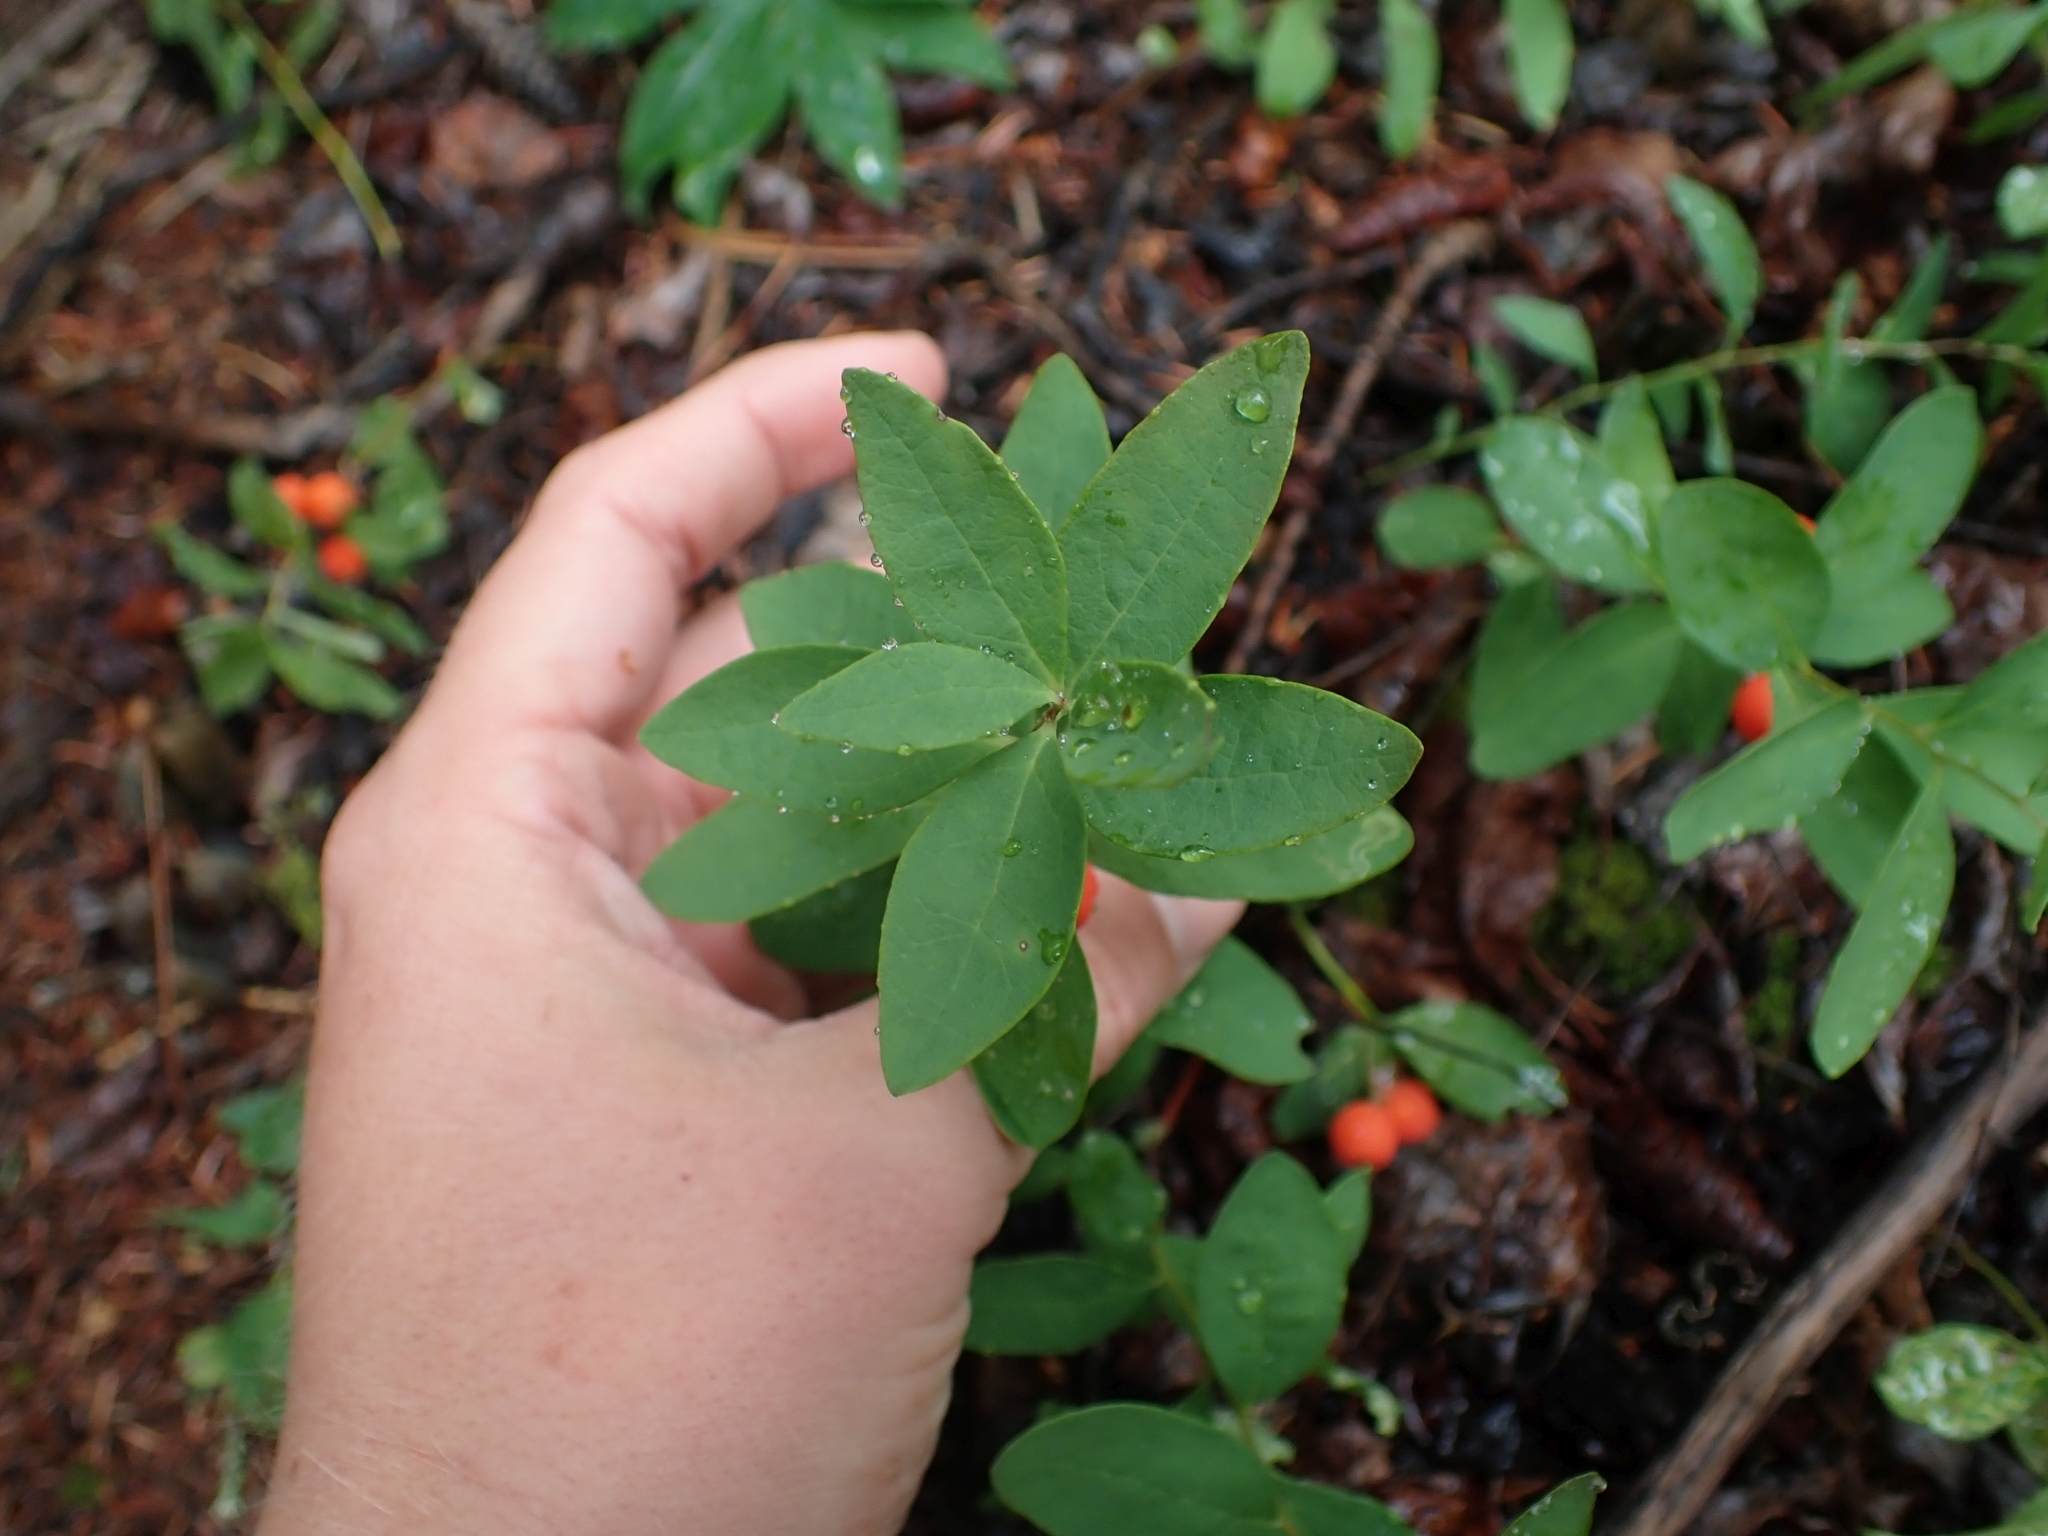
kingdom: Plantae
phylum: Tracheophyta
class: Magnoliopsida
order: Santalales
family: Comandraceae
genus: Geocaulon
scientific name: Geocaulon lividum
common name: Earthberry
